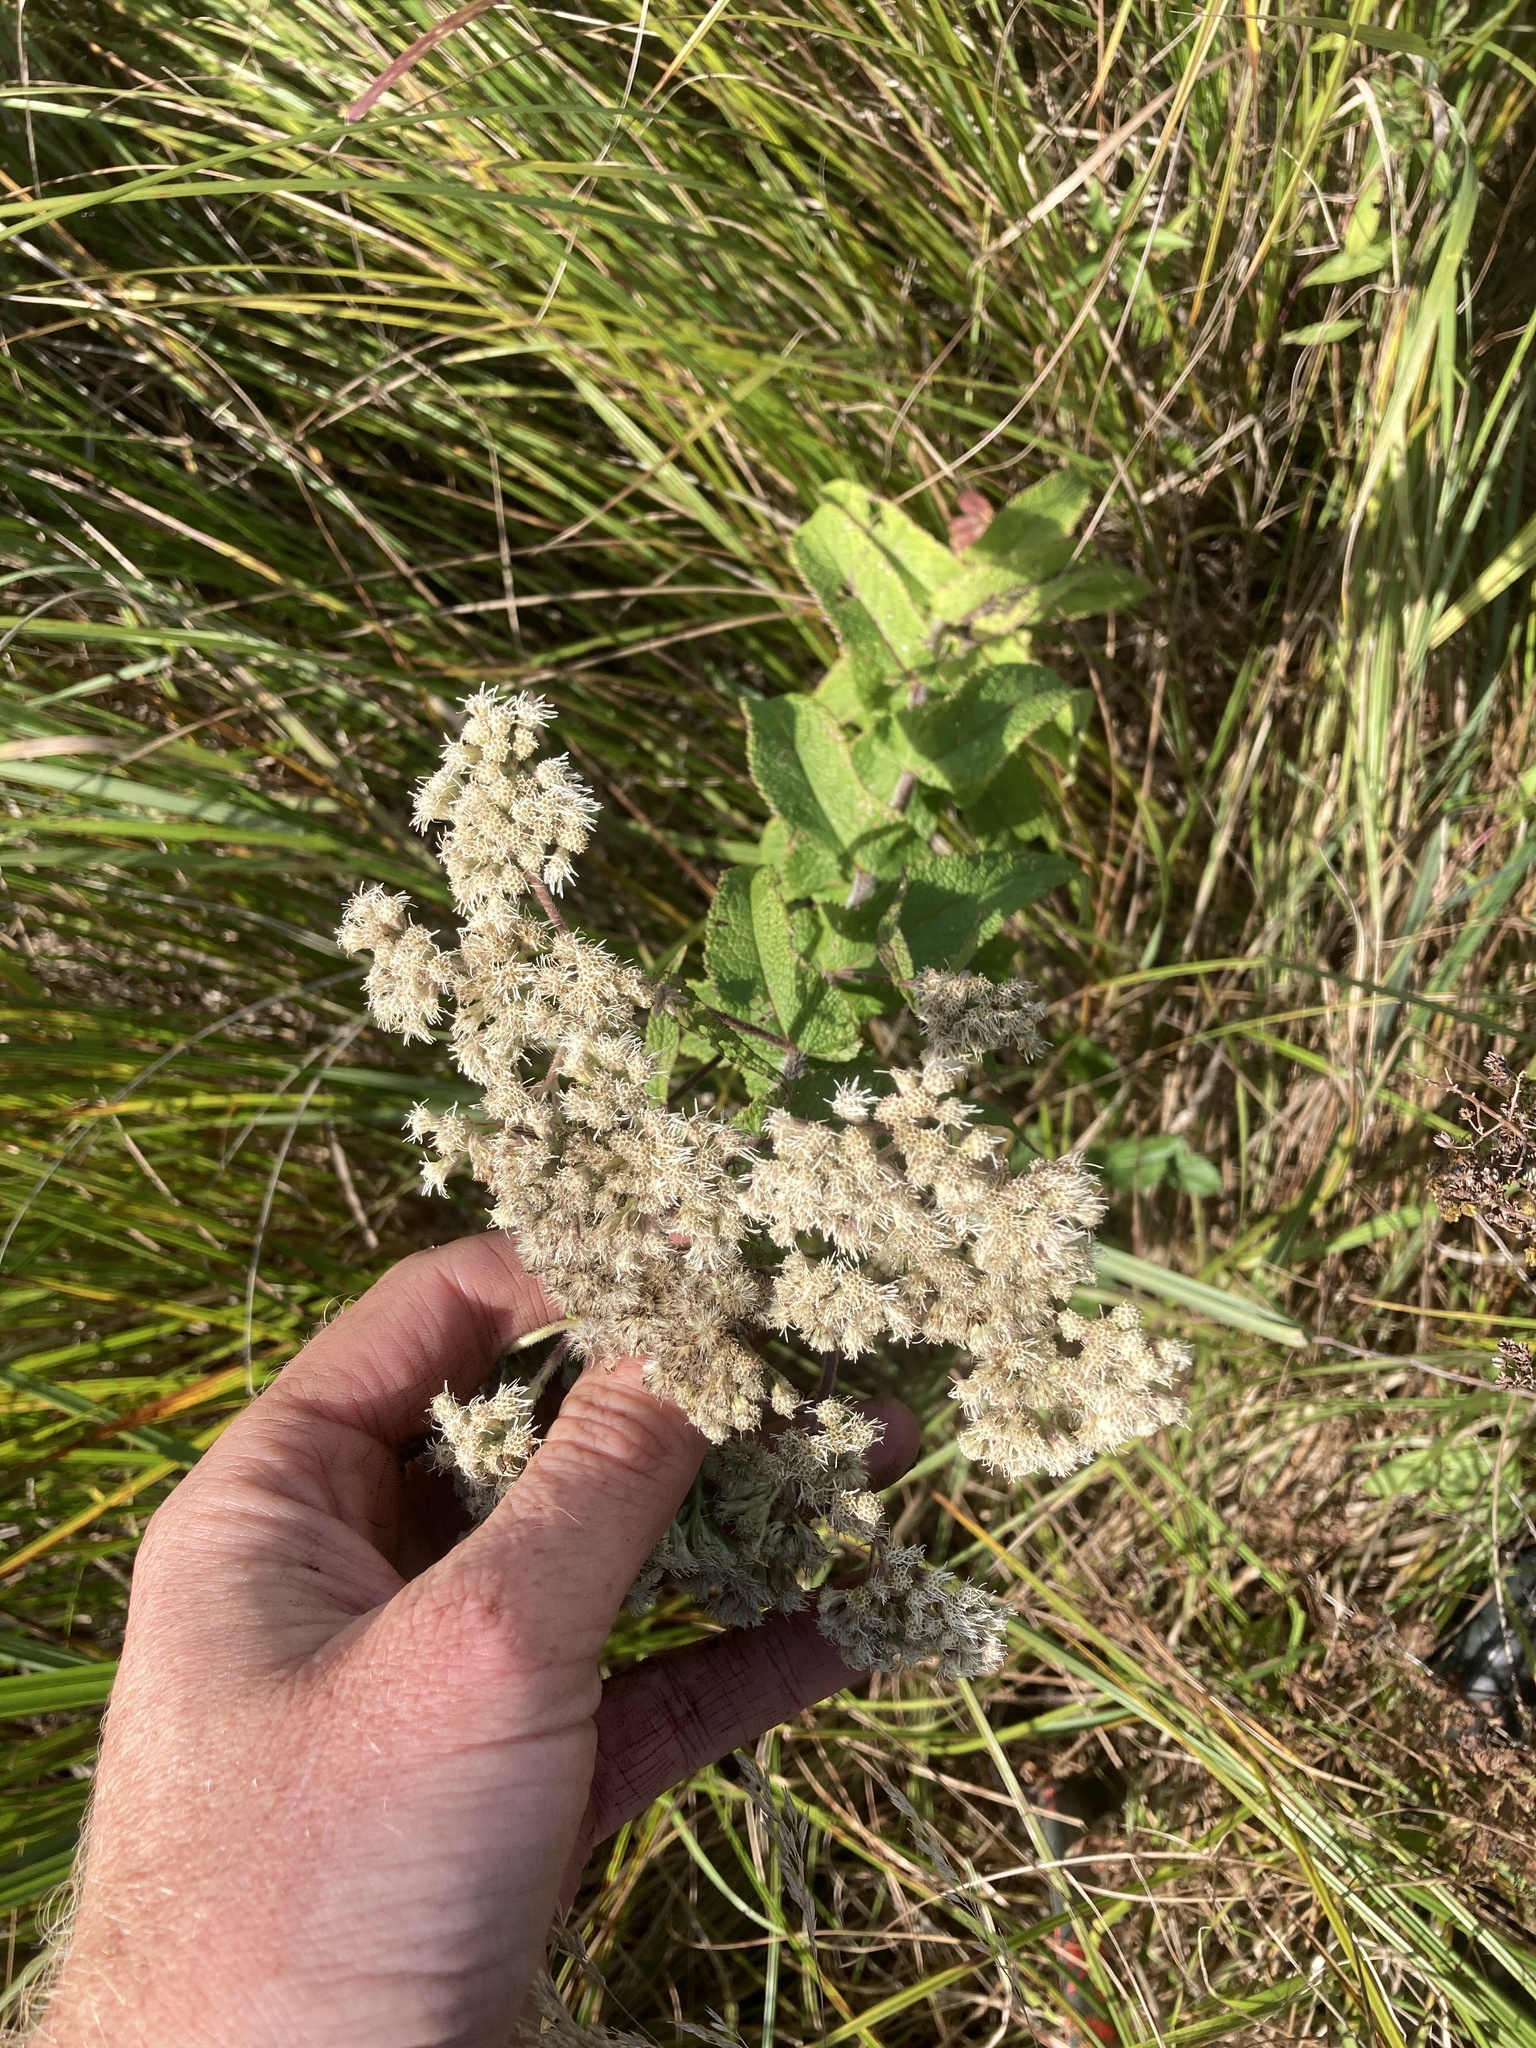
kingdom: Plantae
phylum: Tracheophyta
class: Magnoliopsida
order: Asterales
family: Asteraceae
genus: Eupatorium
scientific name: Eupatorium perfoliatum
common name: Boneset
